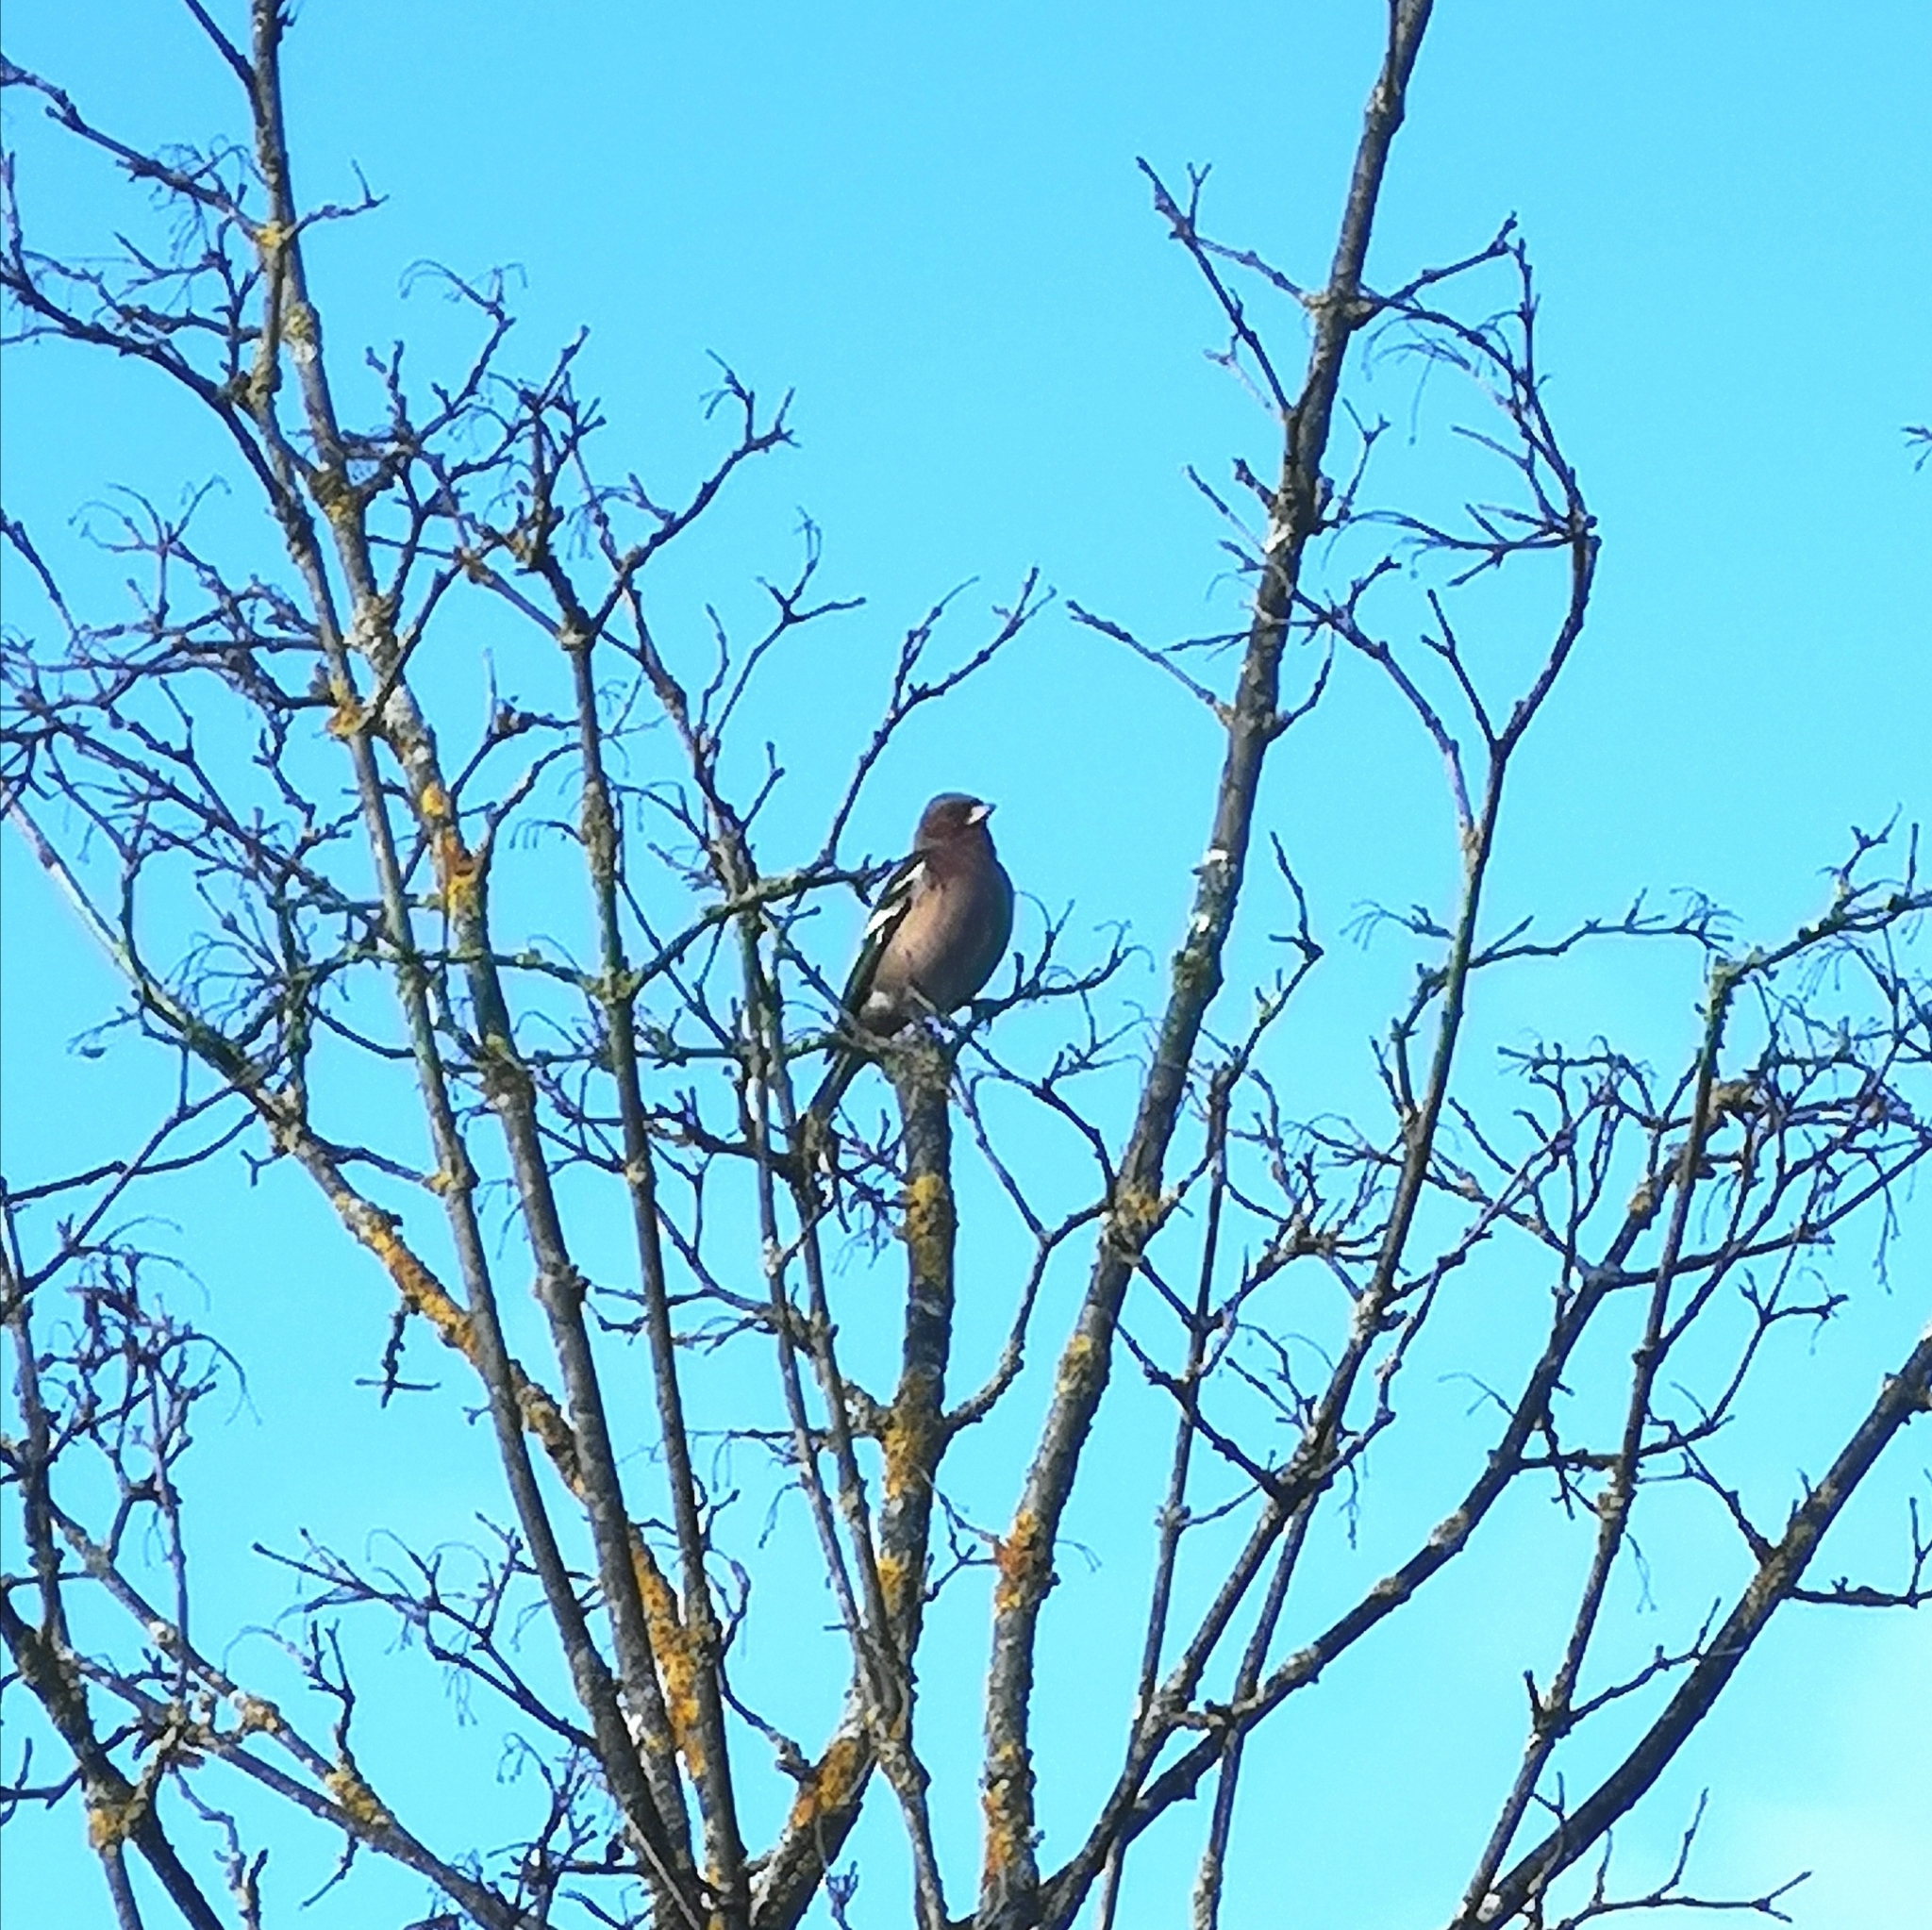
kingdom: Animalia
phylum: Chordata
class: Aves
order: Passeriformes
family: Fringillidae
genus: Fringilla
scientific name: Fringilla coelebs
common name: Common chaffinch
